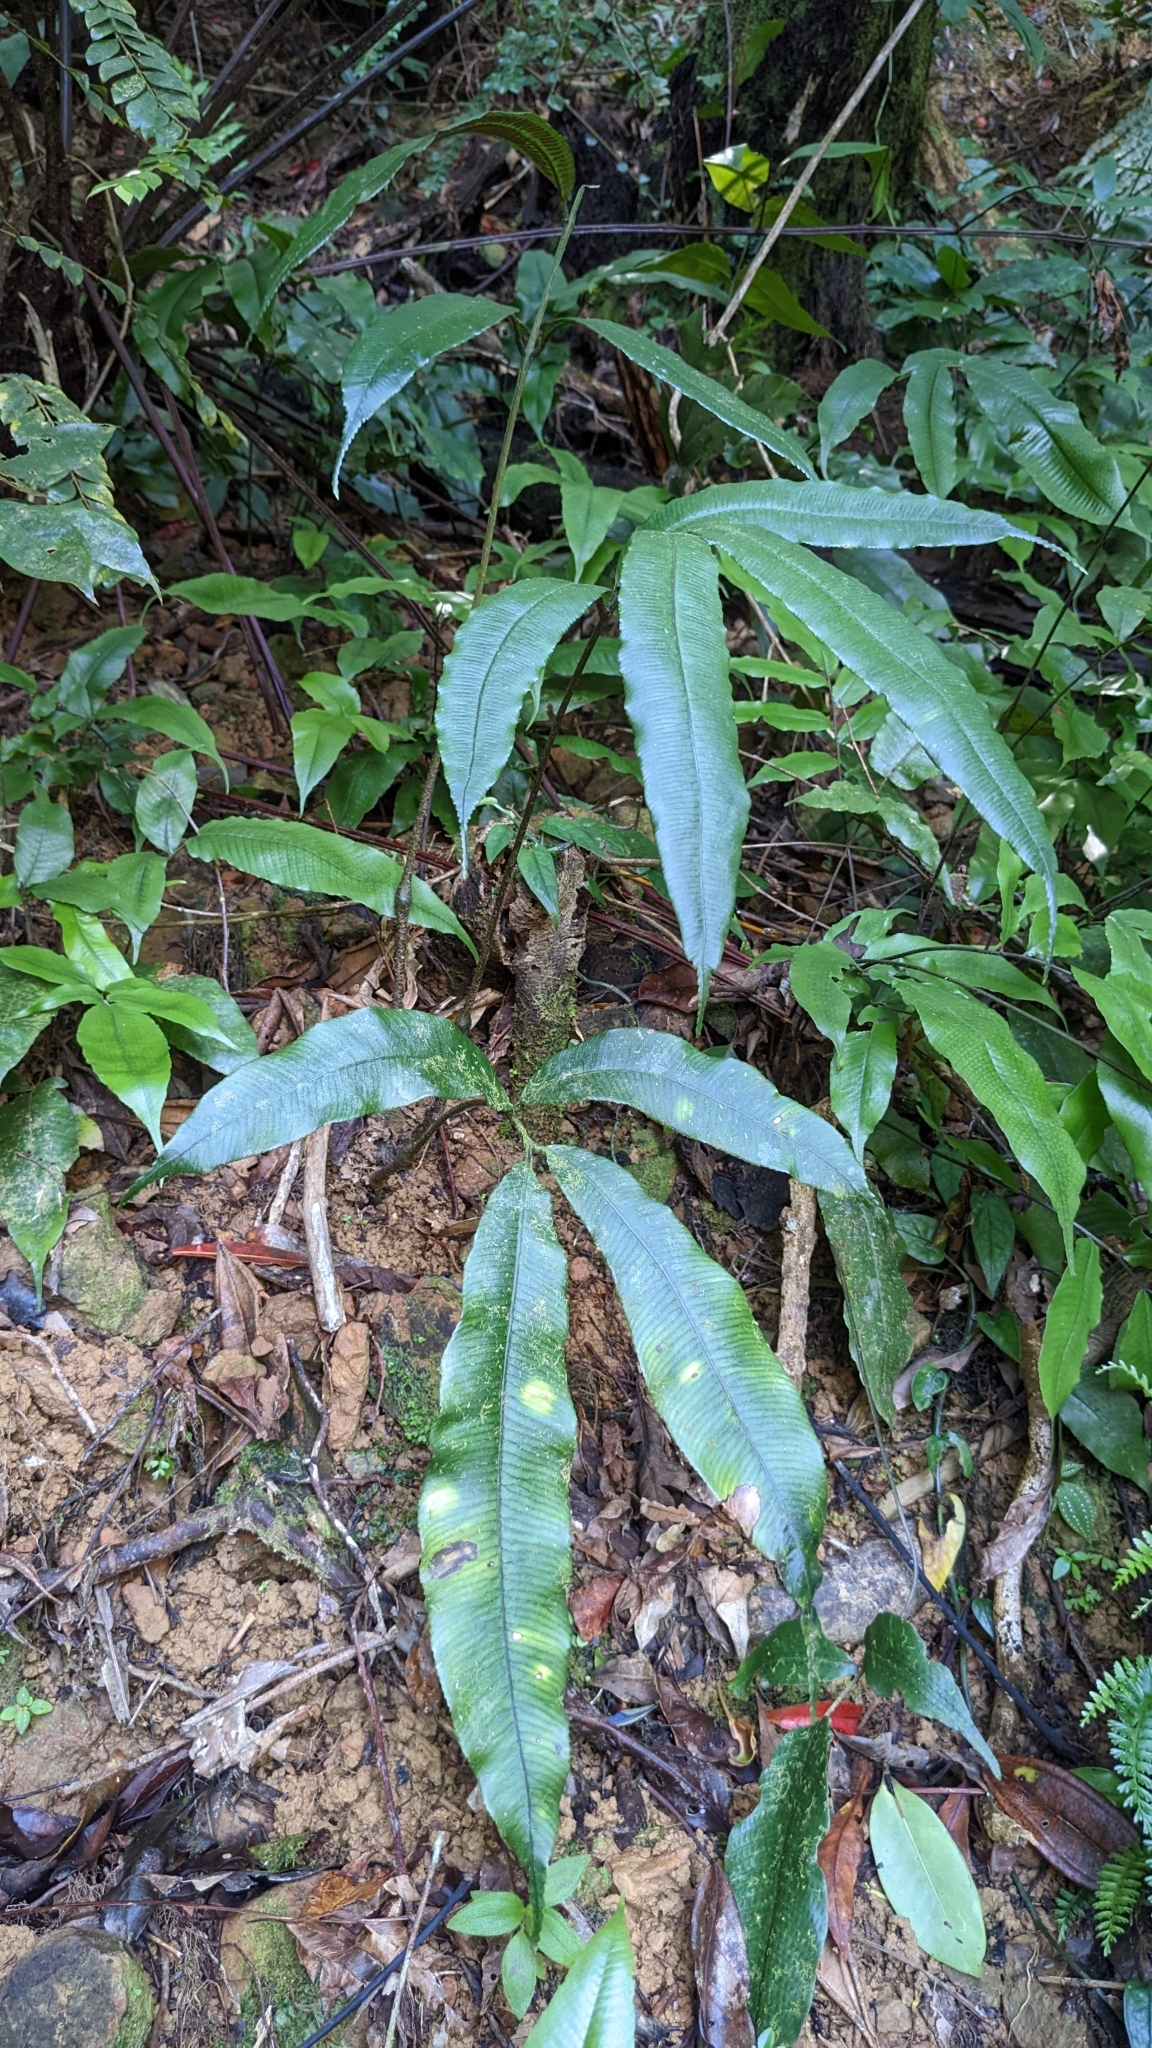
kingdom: Plantae
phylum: Tracheophyta
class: Polypodiopsida
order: Marattiales
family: Marattiaceae
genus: Angiopteris
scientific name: Angiopteris somae
